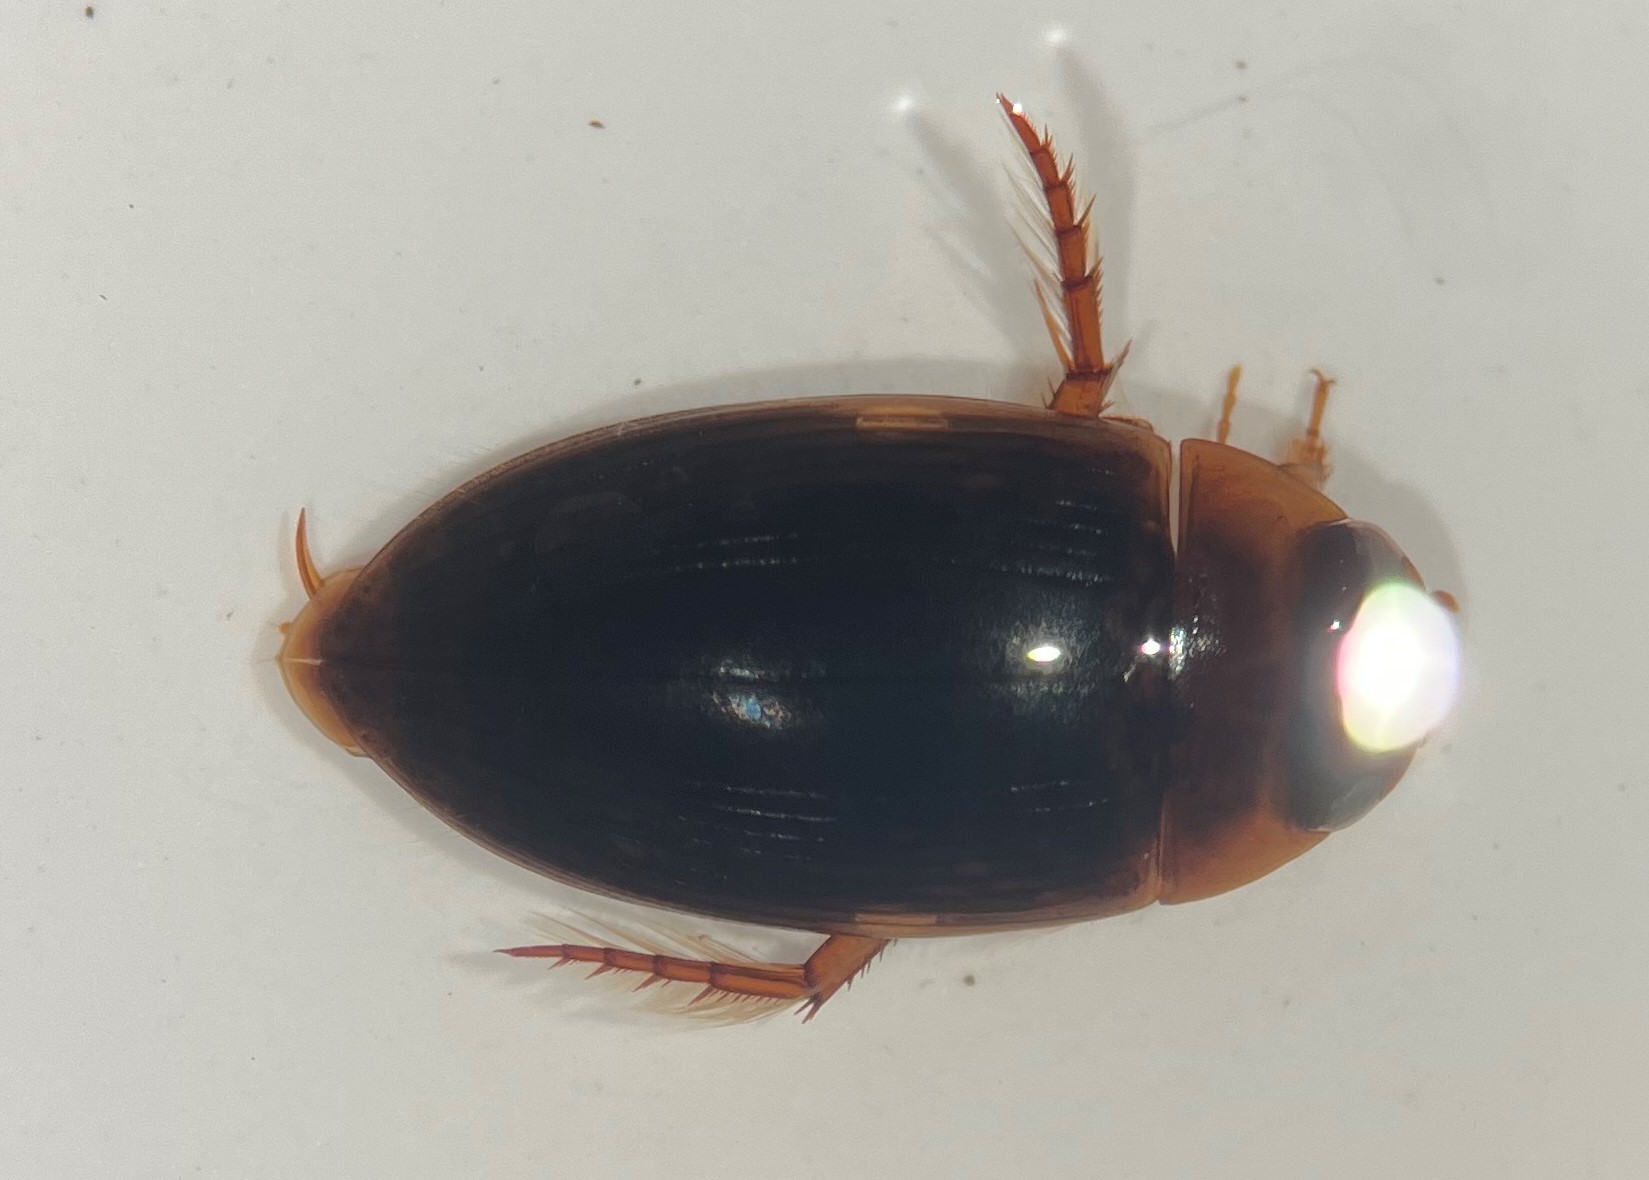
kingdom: Animalia
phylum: Arthropoda
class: Insecta
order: Coleoptera
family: Dytiscidae
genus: Copelatus
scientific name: Copelatus chevrolati
